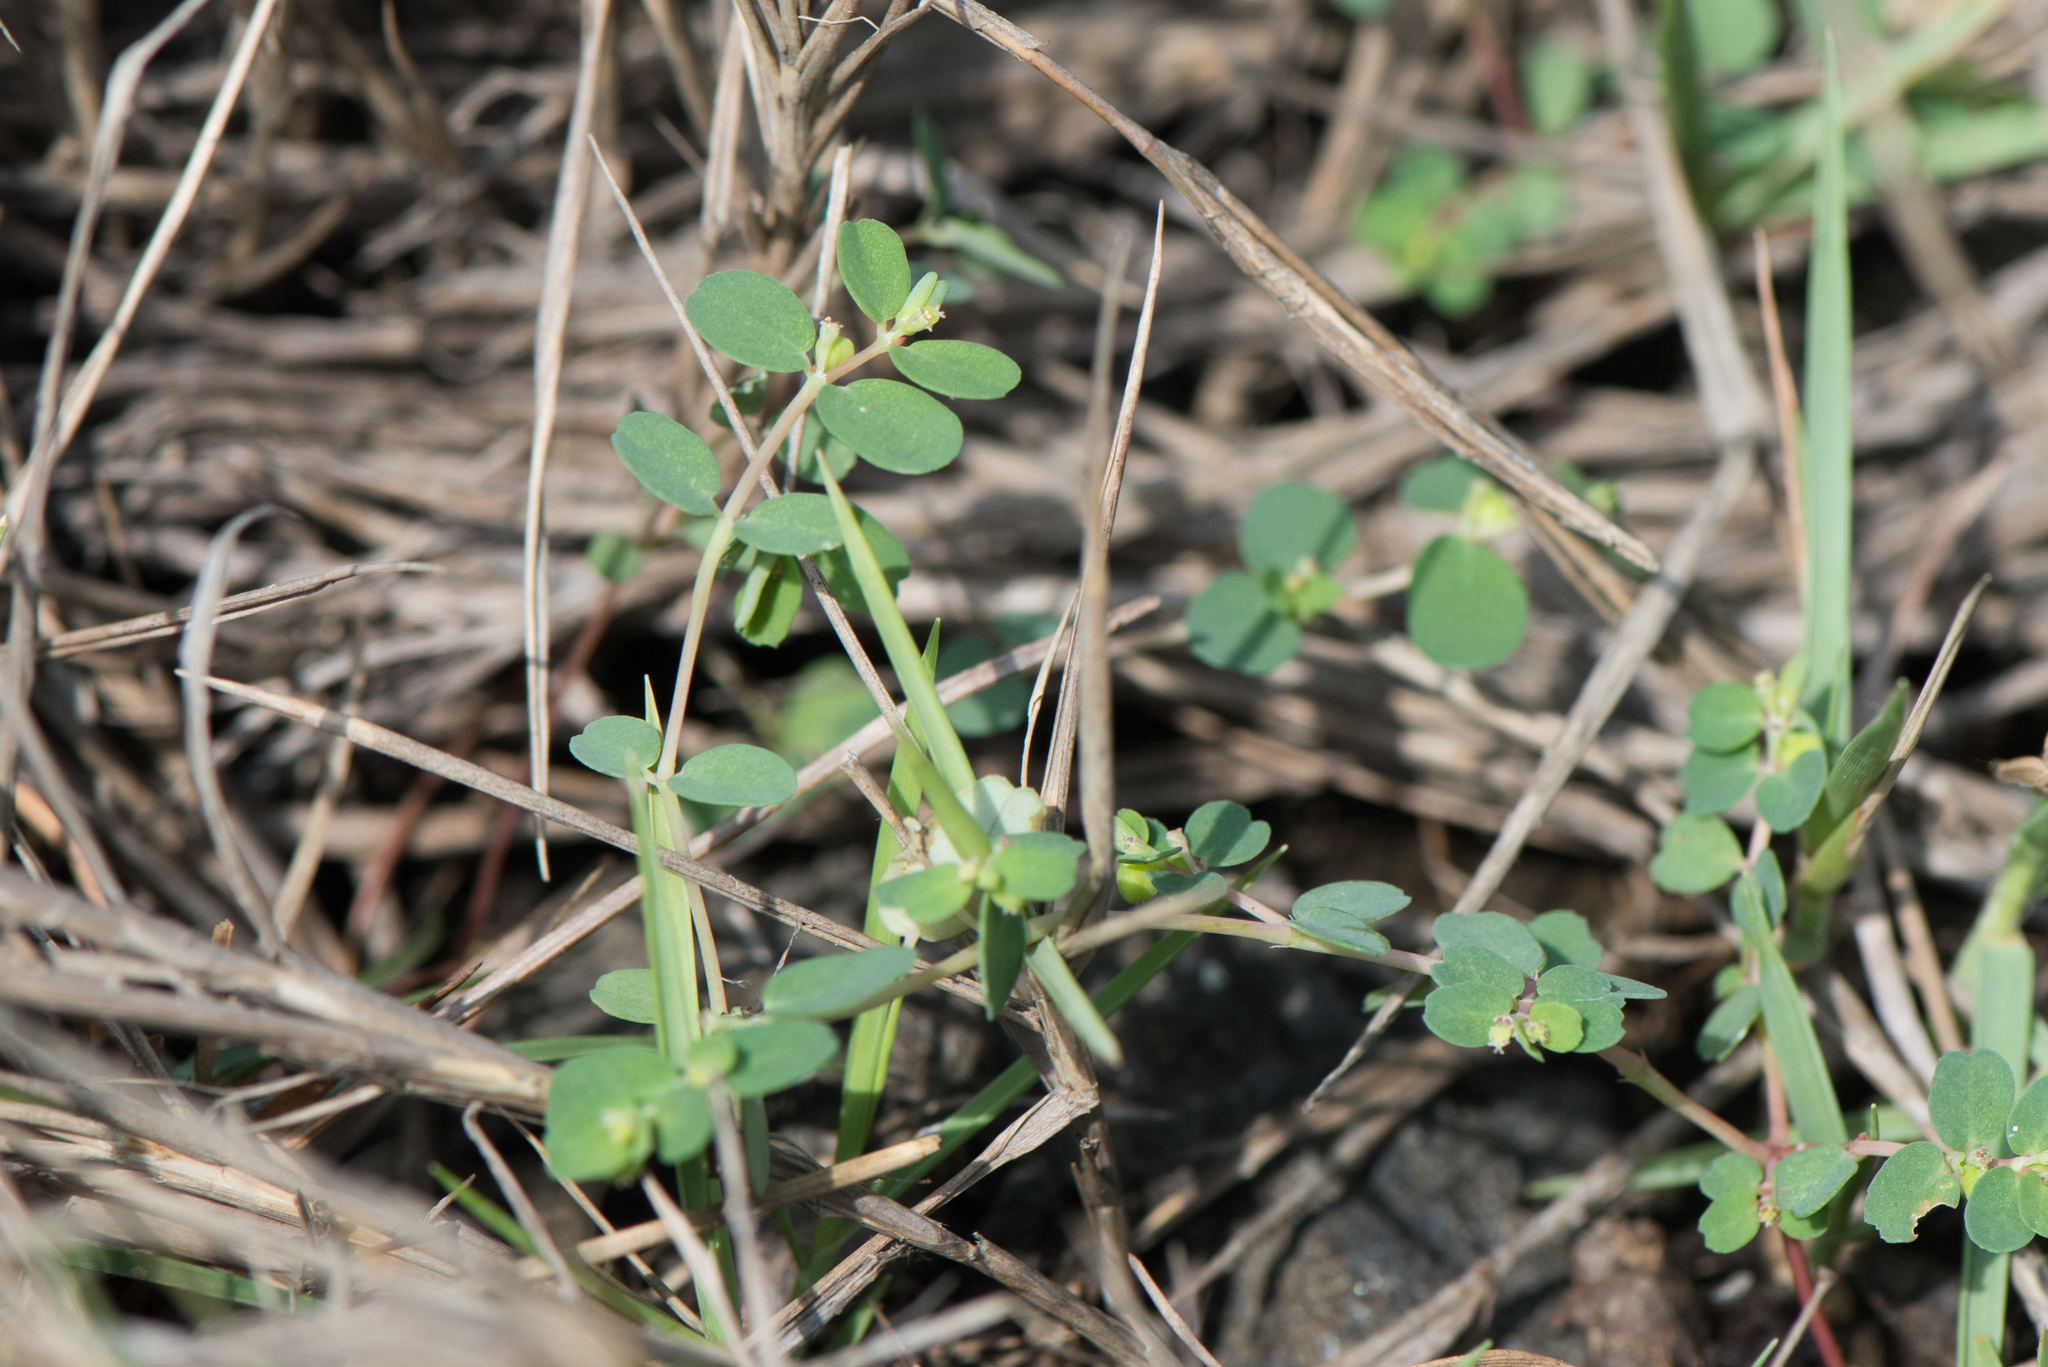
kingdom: Plantae
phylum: Tracheophyta
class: Magnoliopsida
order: Malpighiales
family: Euphorbiaceae
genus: Euphorbia
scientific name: Euphorbia taihsiensis
